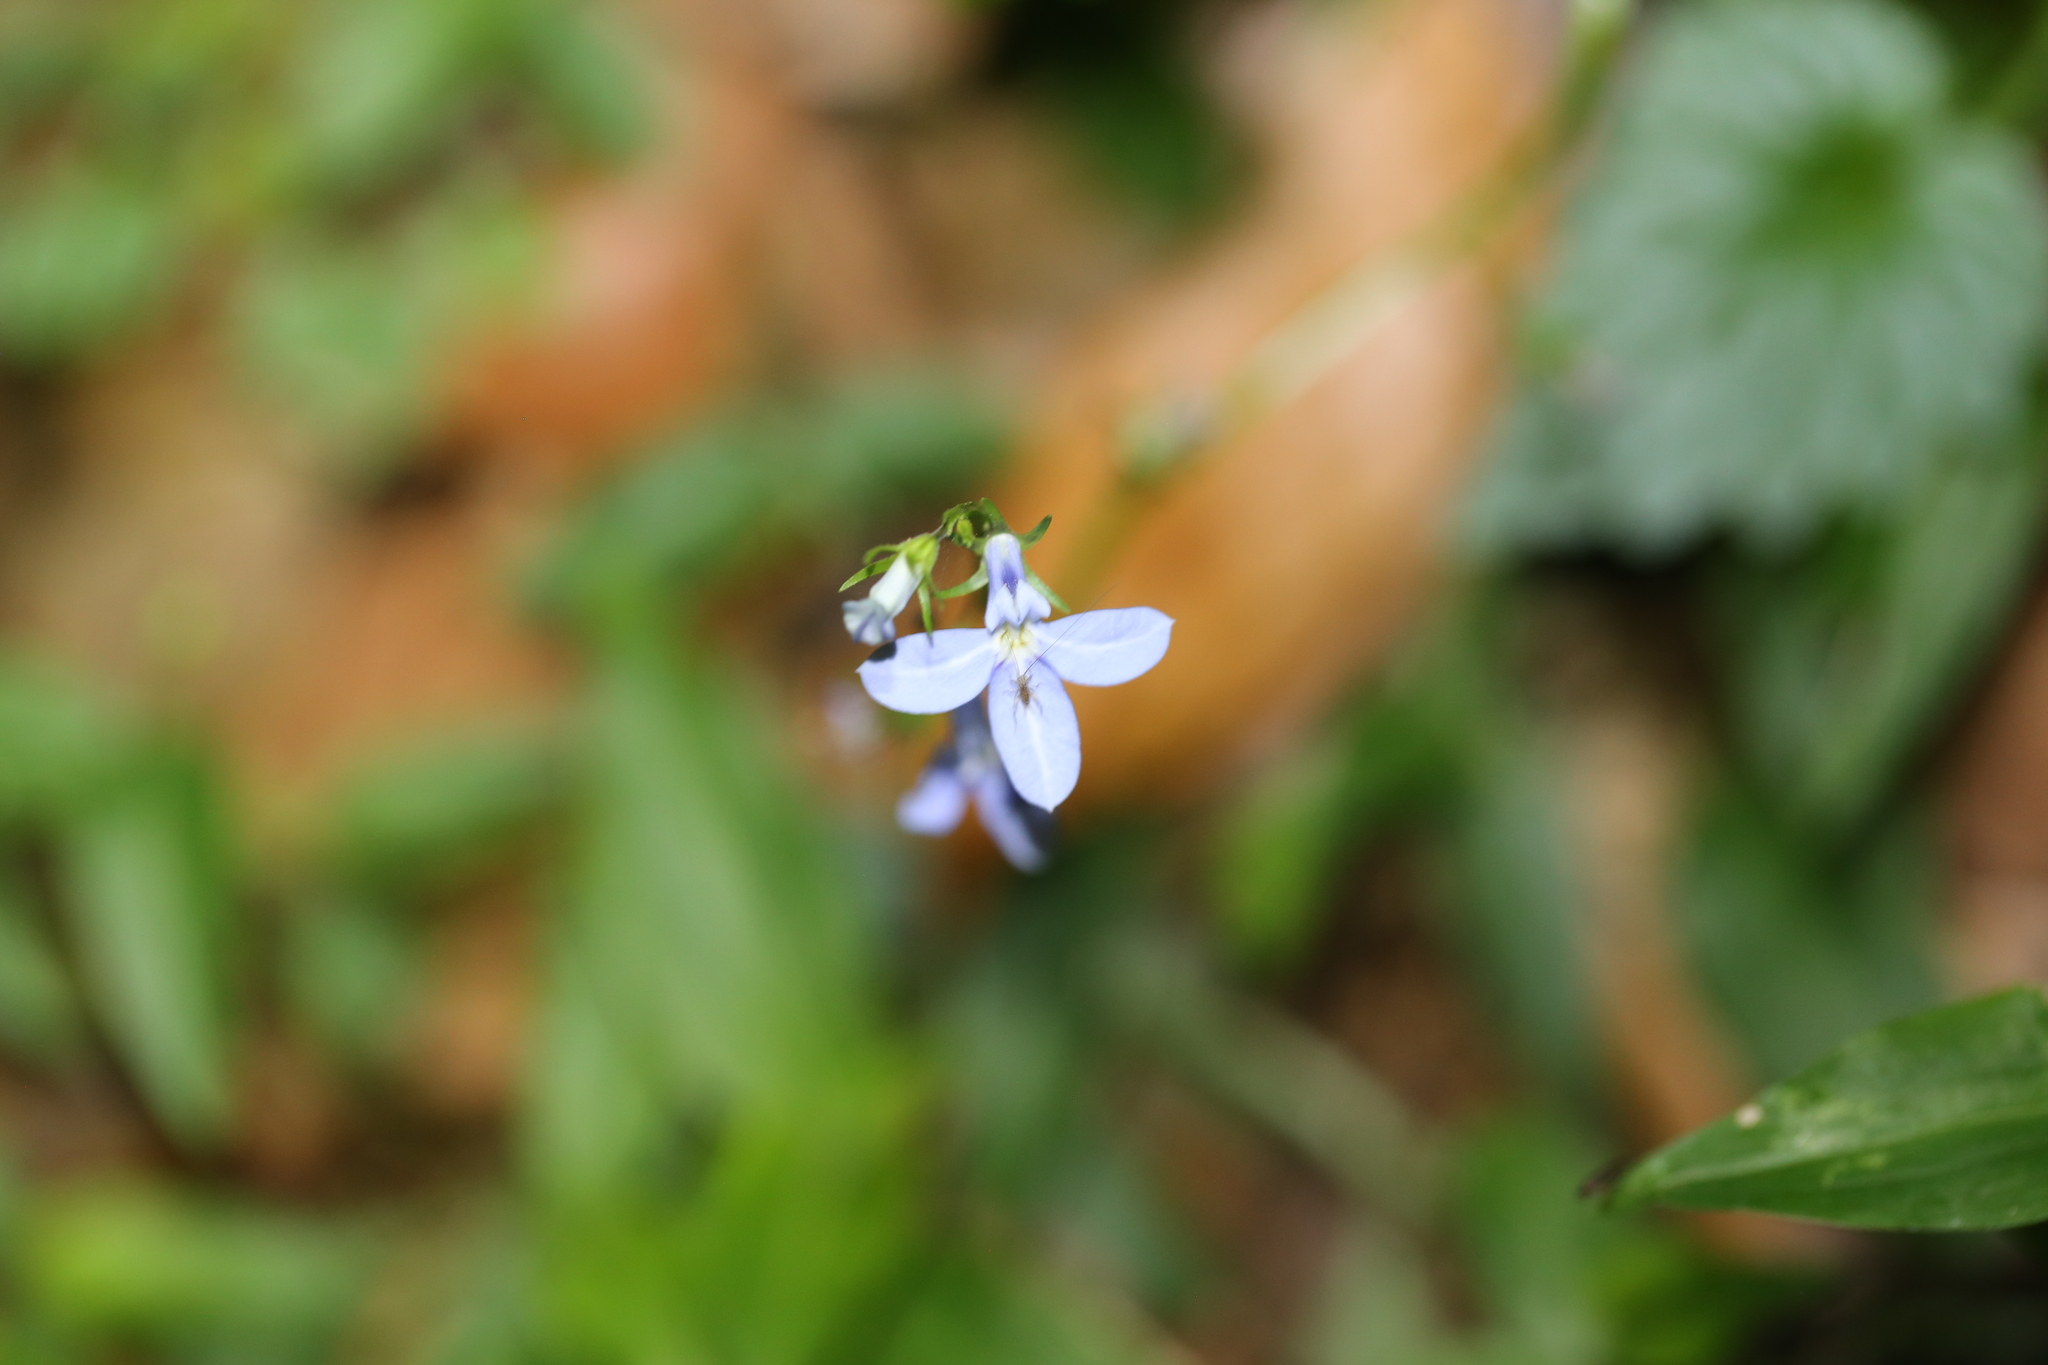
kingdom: Plantae
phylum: Tracheophyta
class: Magnoliopsida
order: Asterales
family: Campanulaceae
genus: Lobelia
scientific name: Lobelia trigonocaulis
